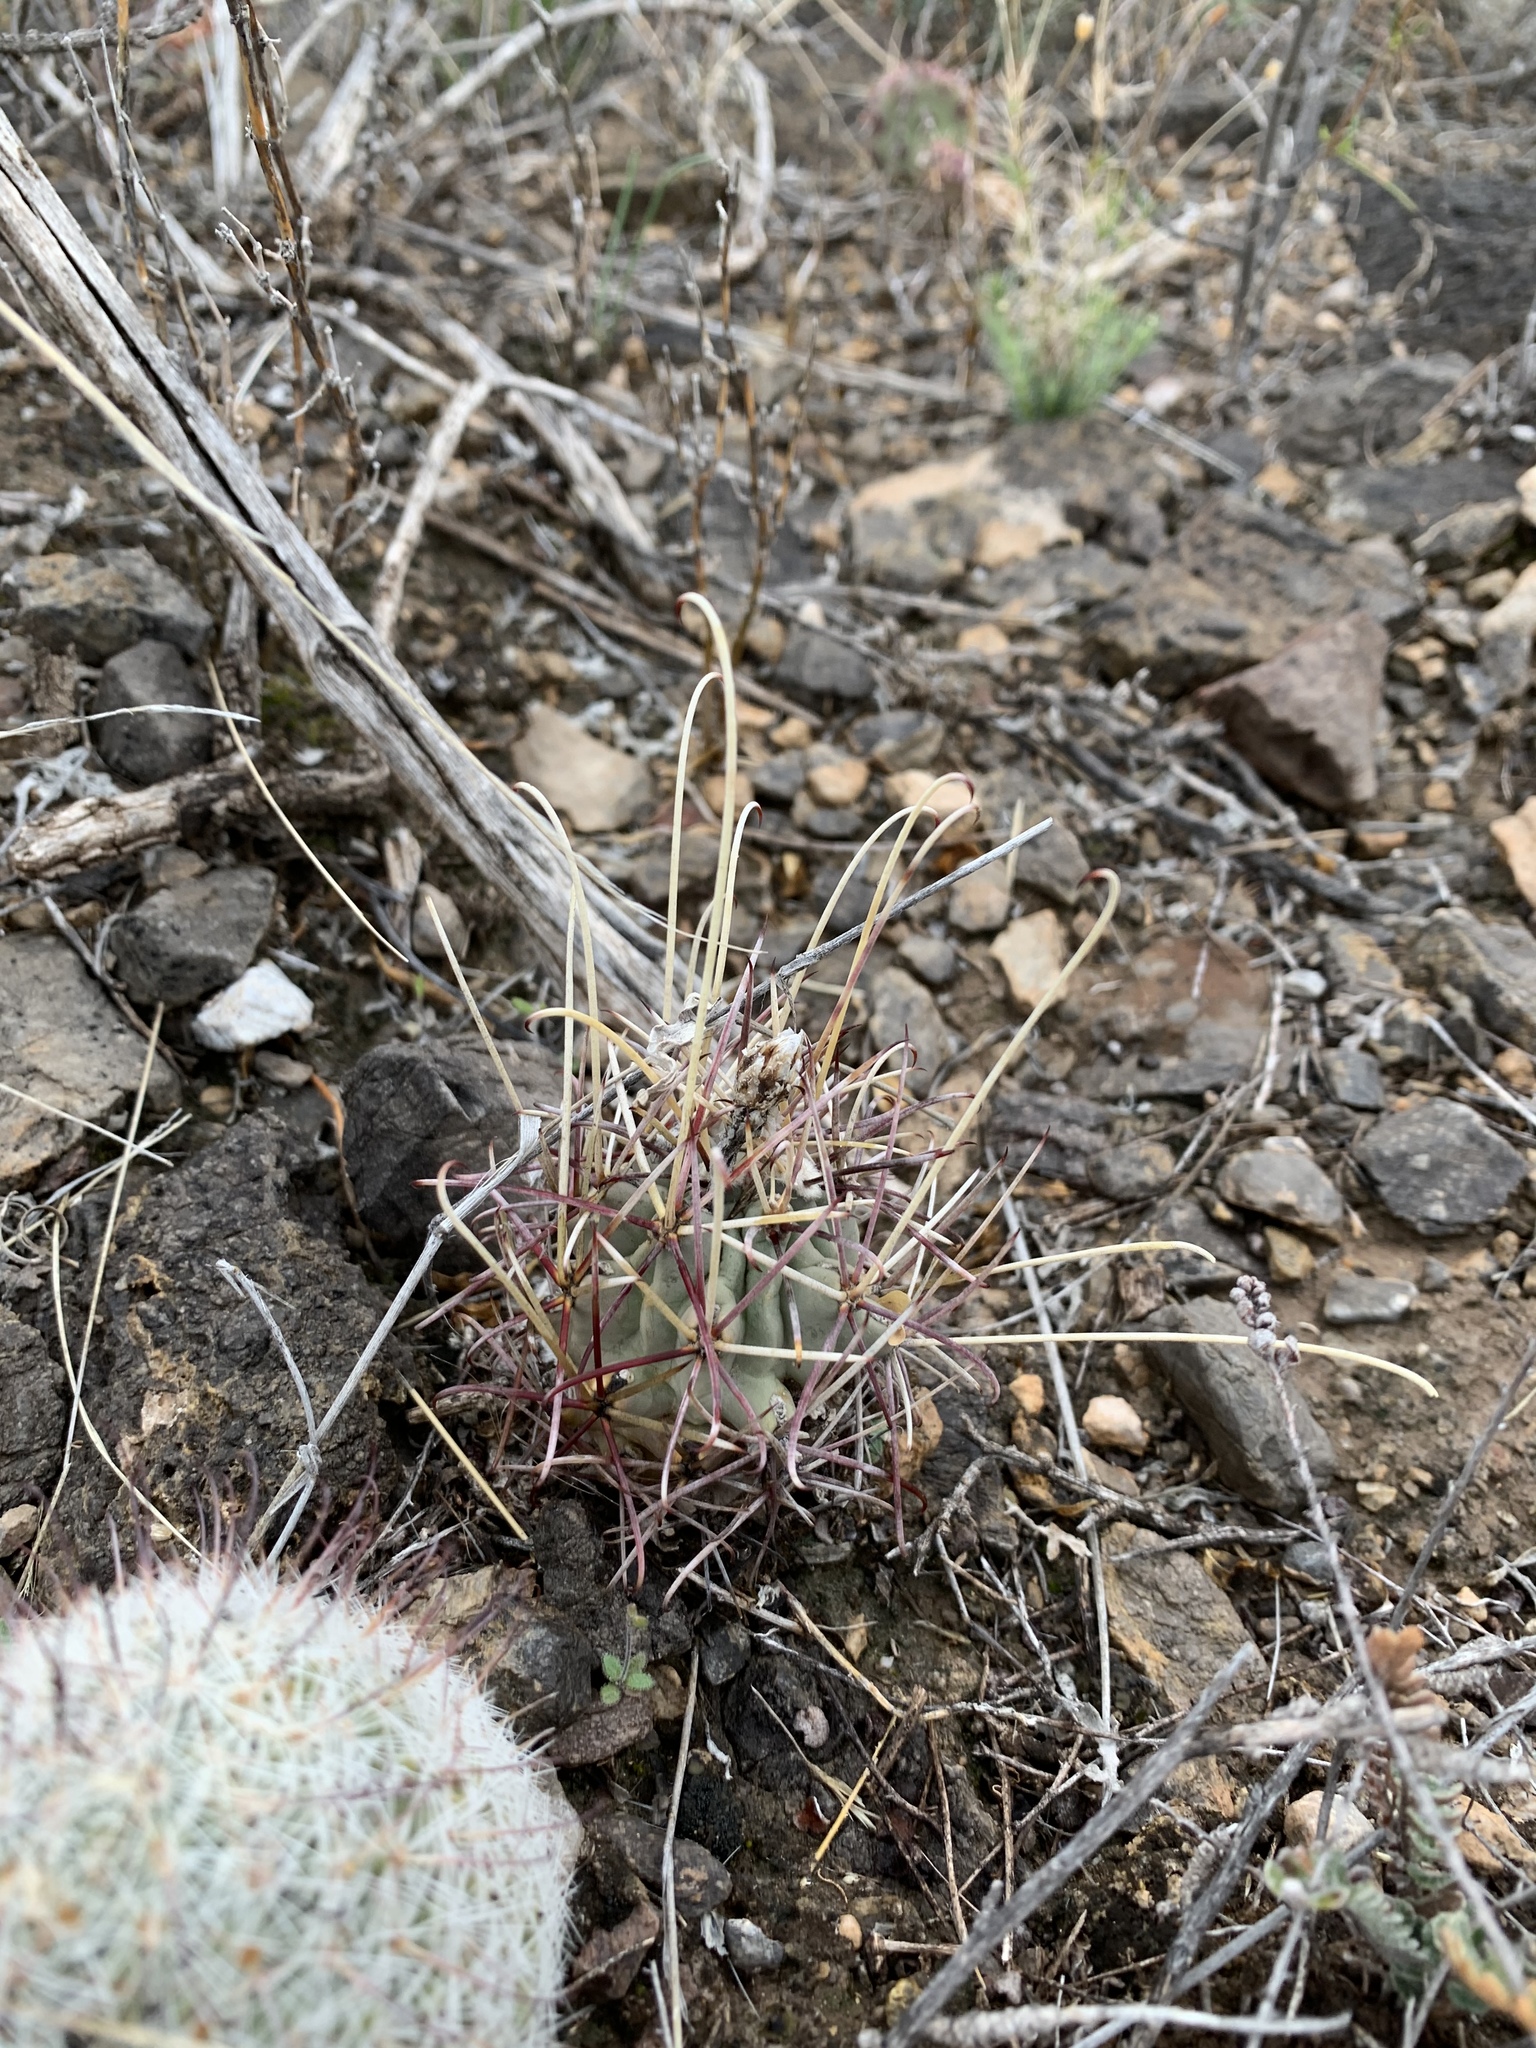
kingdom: Plantae
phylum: Tracheophyta
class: Magnoliopsida
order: Caryophyllales
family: Cactaceae
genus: Ferocactus
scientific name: Ferocactus uncinatus
